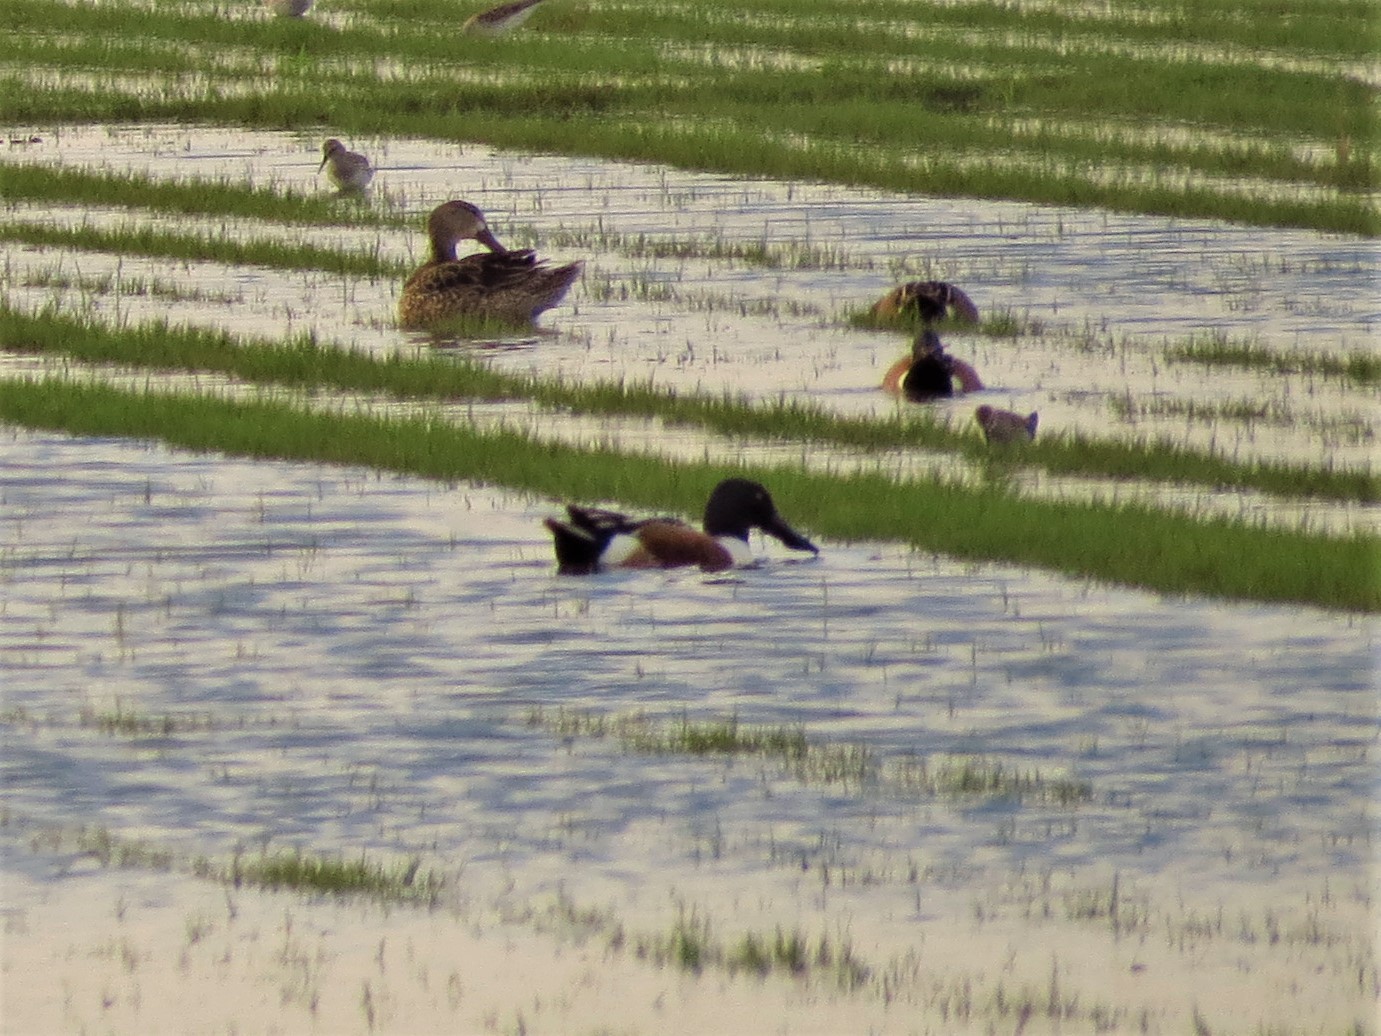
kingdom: Animalia
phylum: Chordata
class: Aves
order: Anseriformes
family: Anatidae
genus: Spatula
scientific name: Spatula clypeata
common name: Northern shoveler
